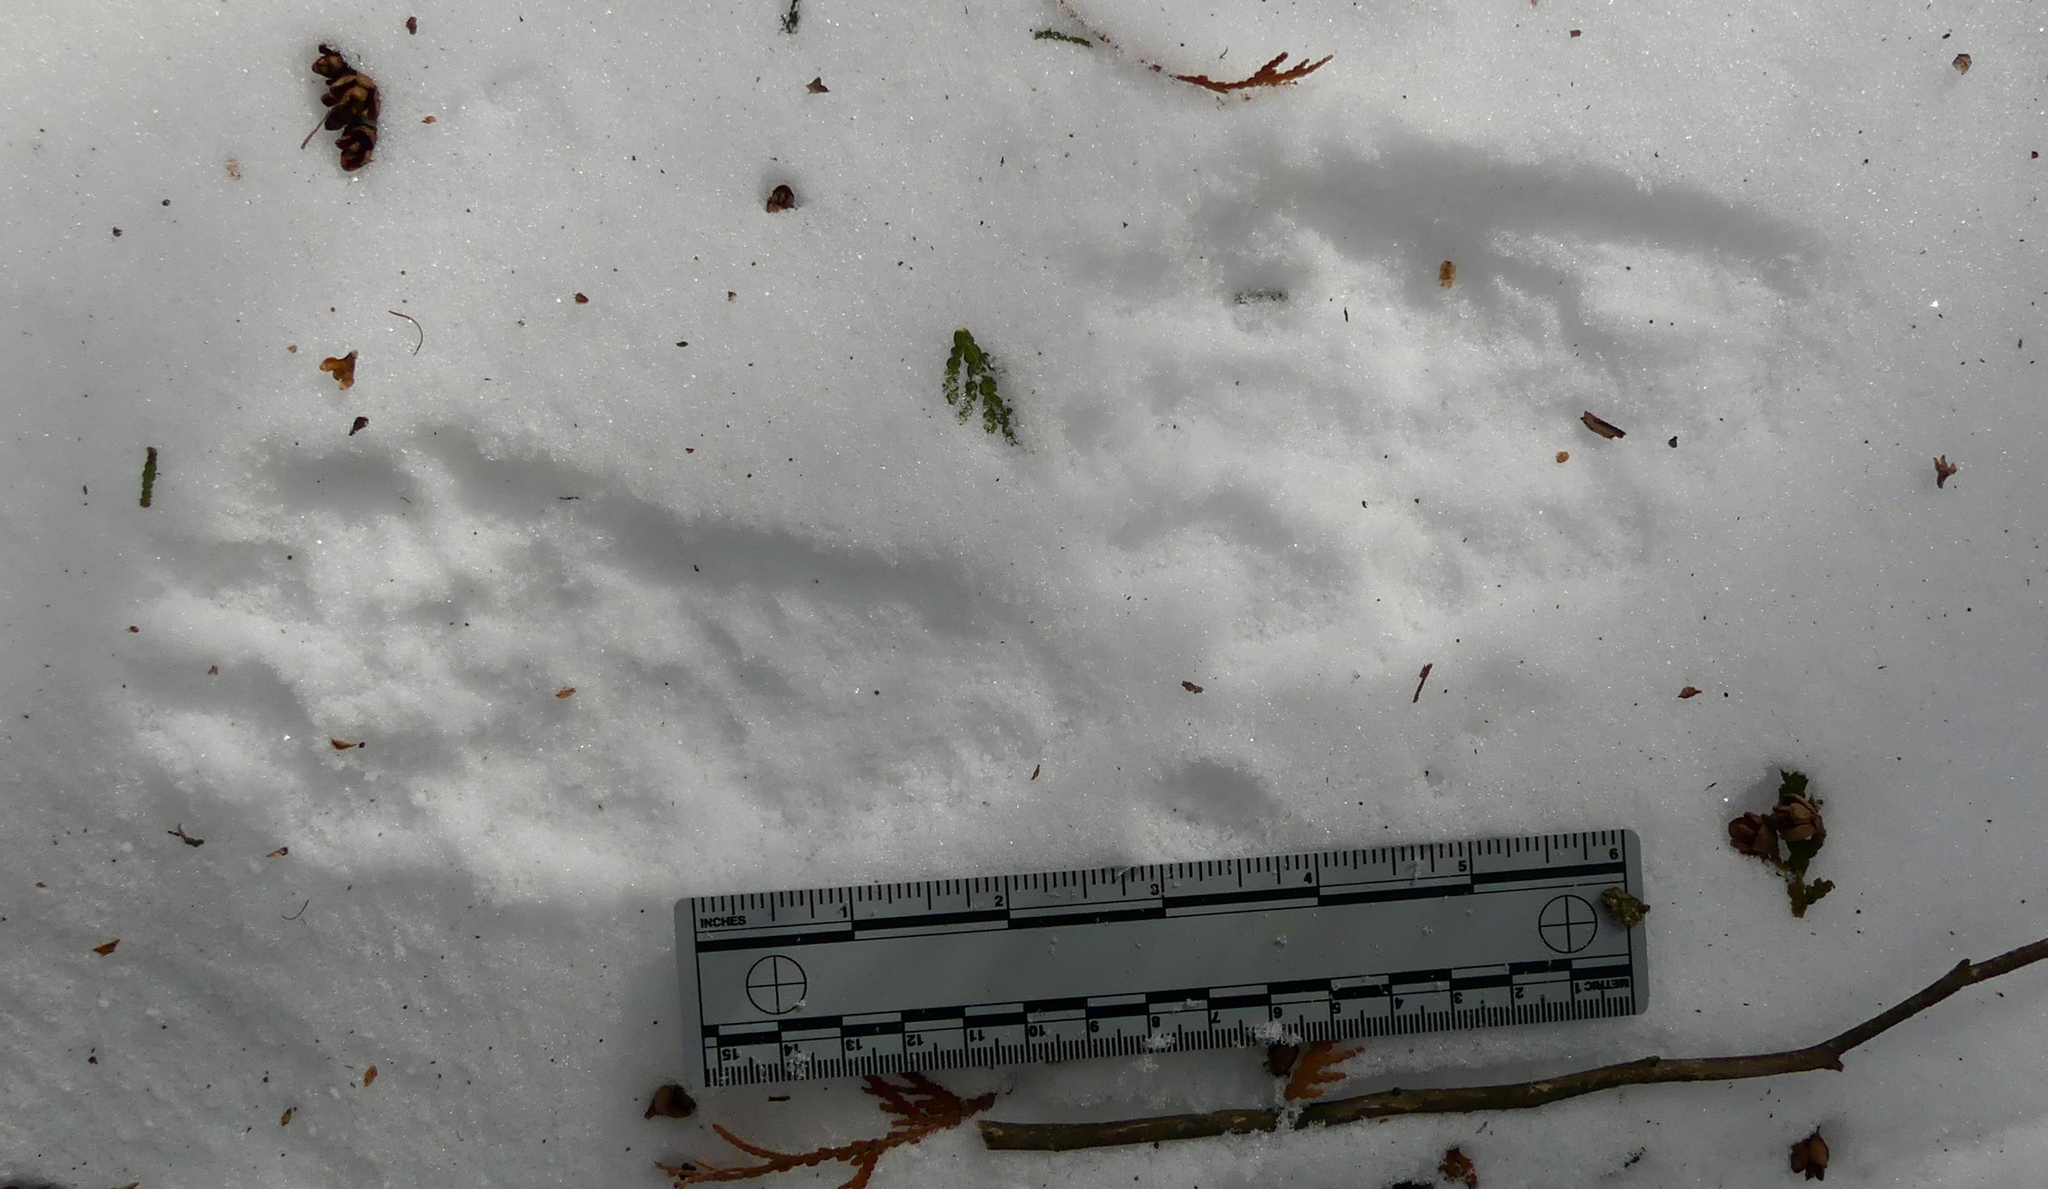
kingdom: Animalia
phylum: Chordata
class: Mammalia
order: Carnivora
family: Mustelidae
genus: Pekania
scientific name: Pekania pennanti
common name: Fisher
